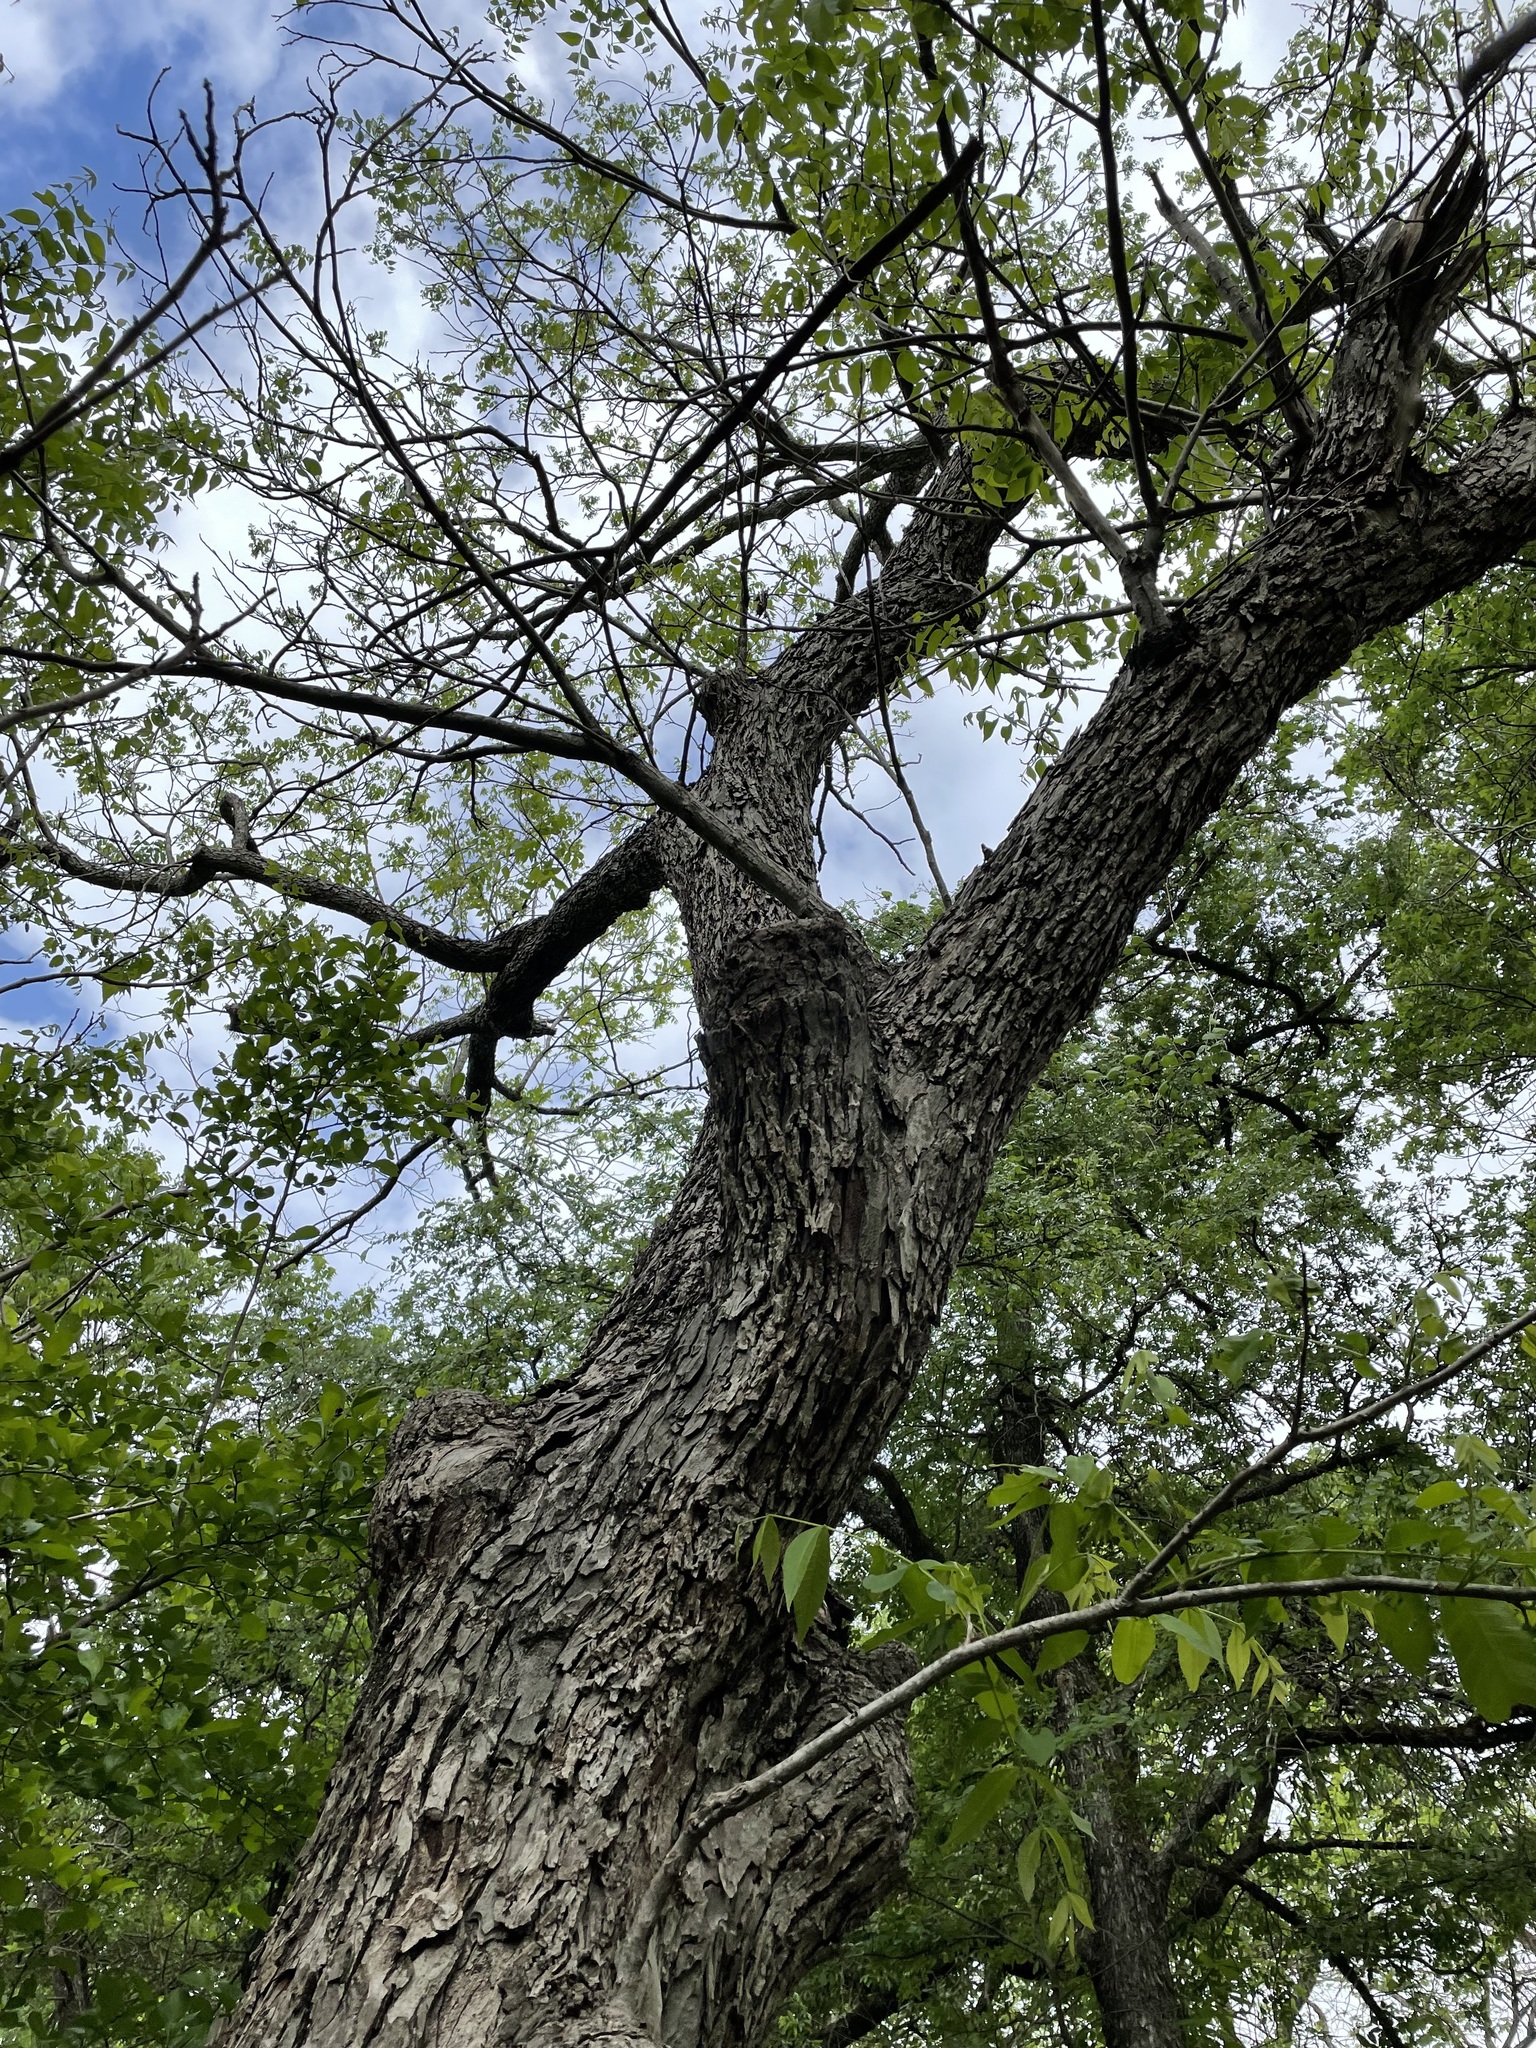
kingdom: Plantae
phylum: Tracheophyta
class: Magnoliopsida
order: Fagales
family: Juglandaceae
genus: Carya
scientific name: Carya illinoinensis
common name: Pecan
